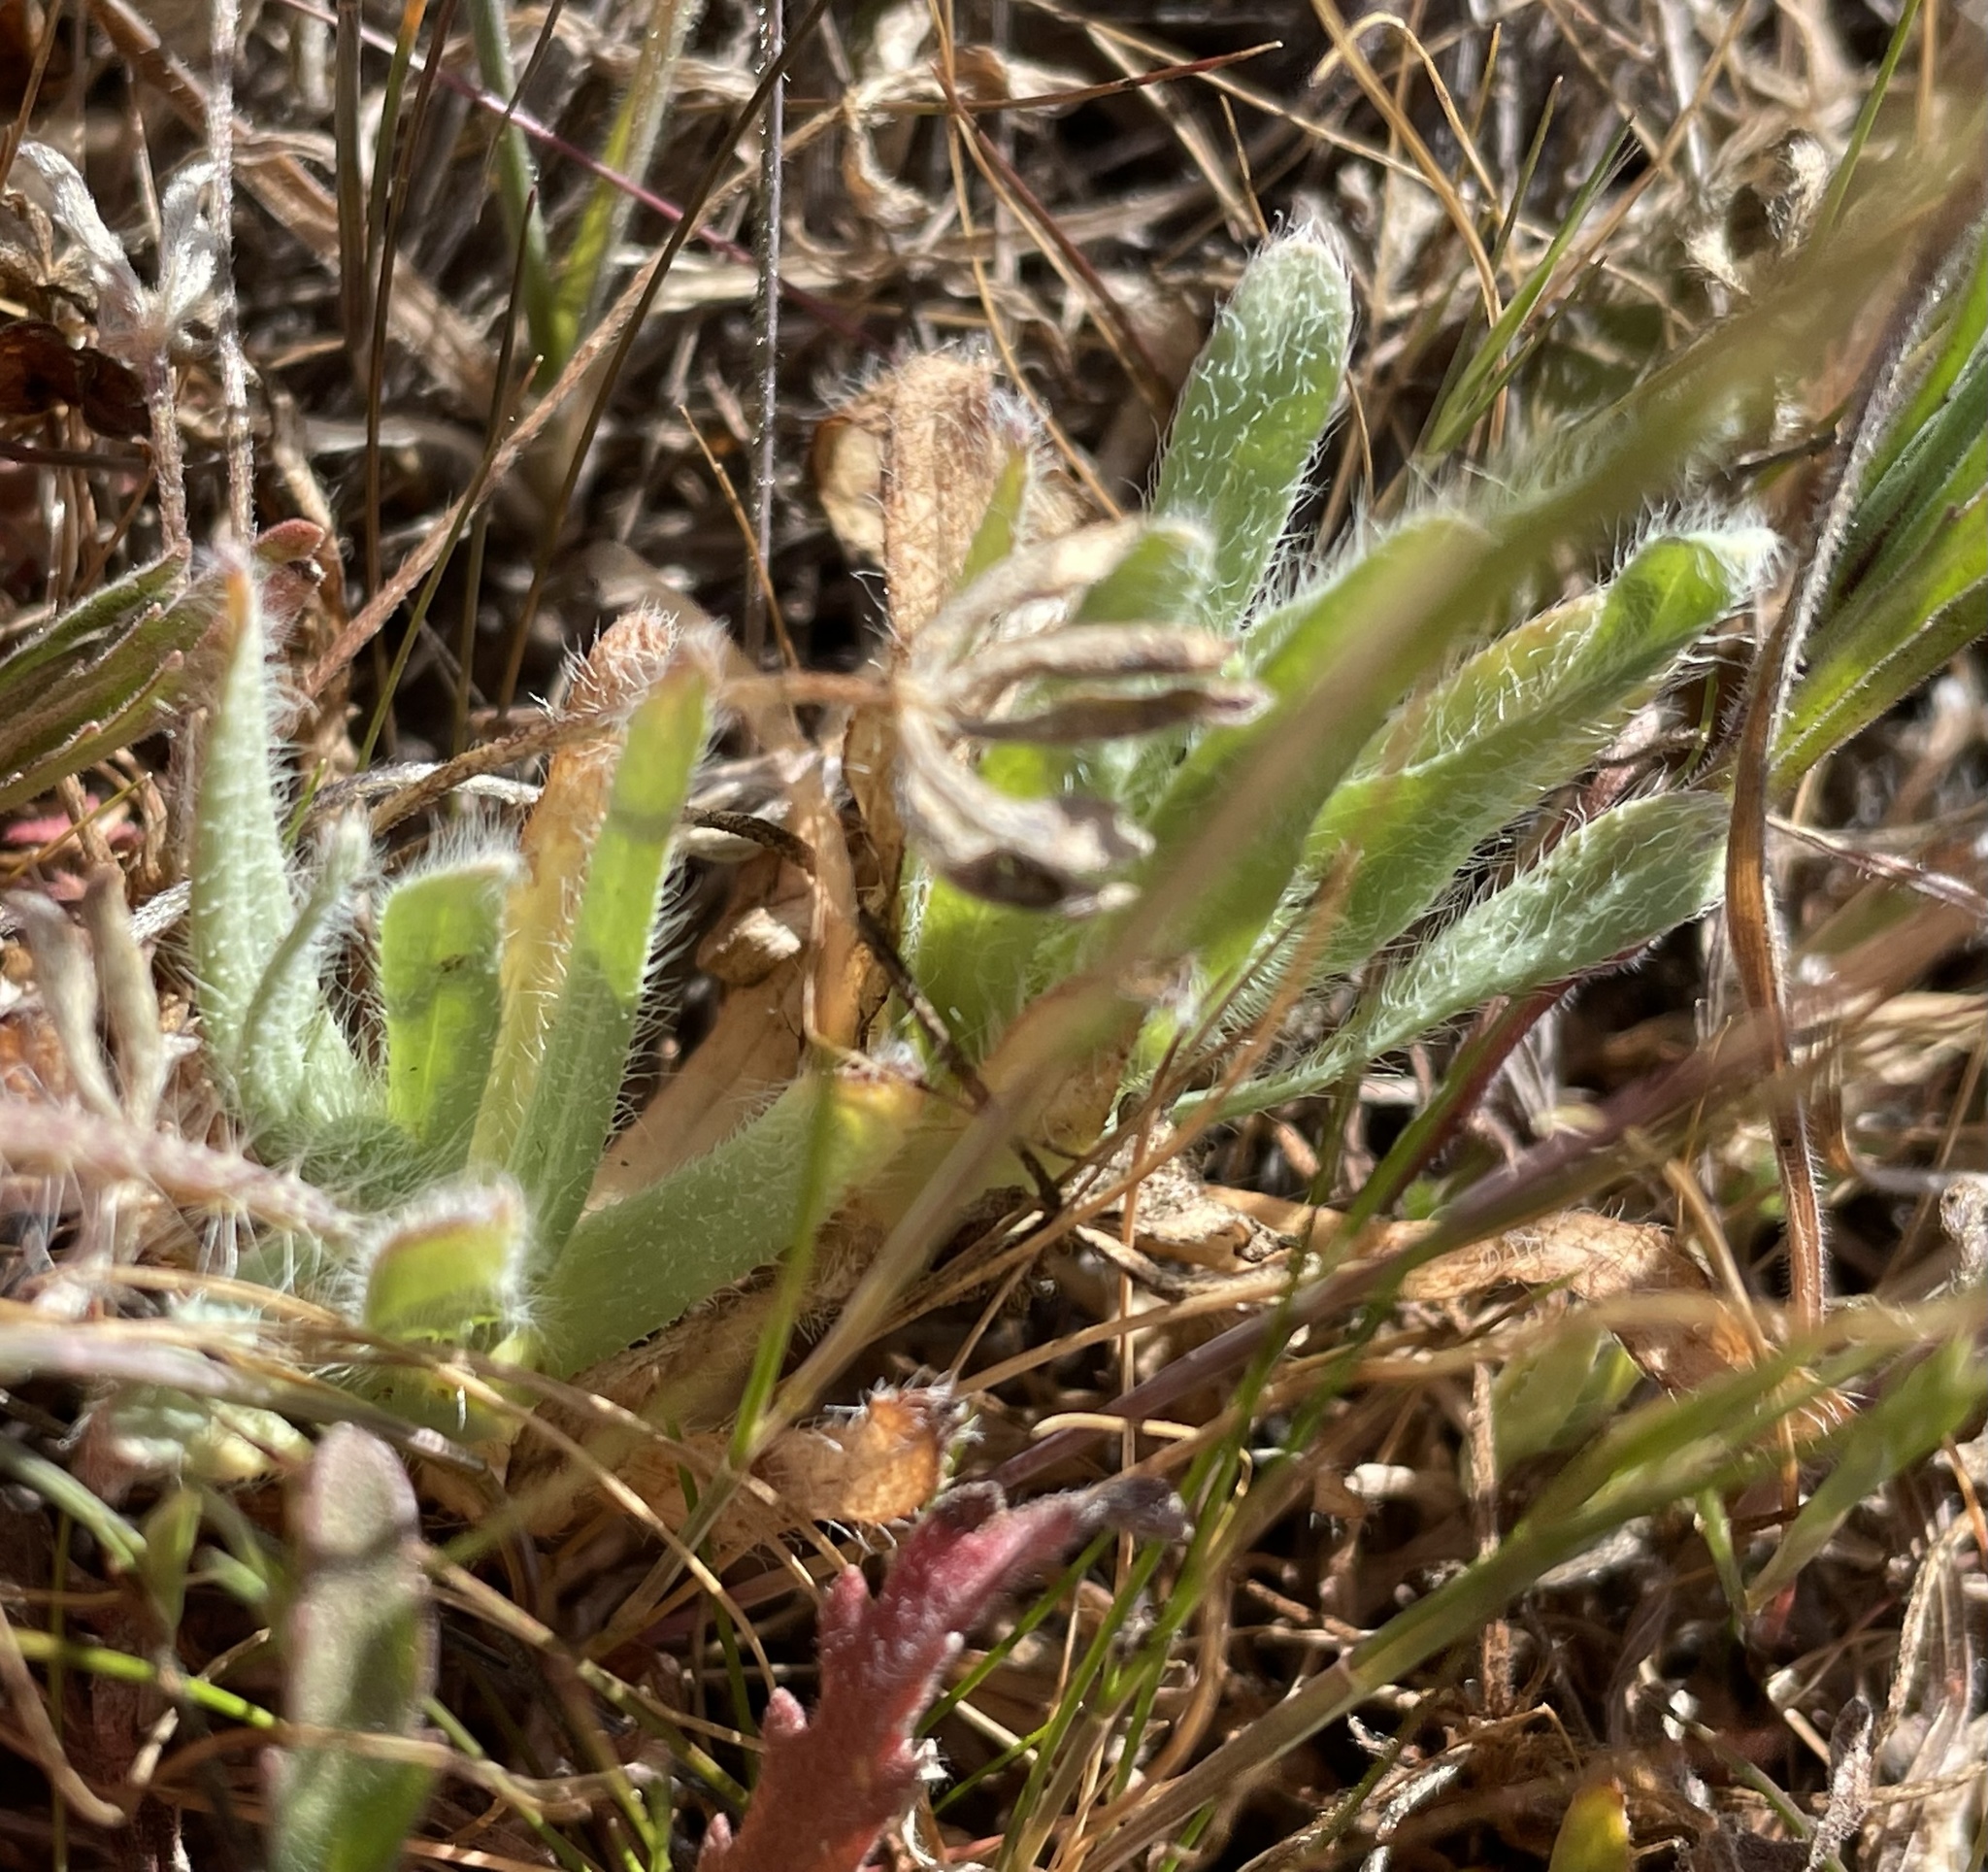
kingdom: Plantae
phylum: Tracheophyta
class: Magnoliopsida
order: Ranunculales
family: Papaveraceae
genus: Platystemon
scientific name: Platystemon californicus
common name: Cream-cups
